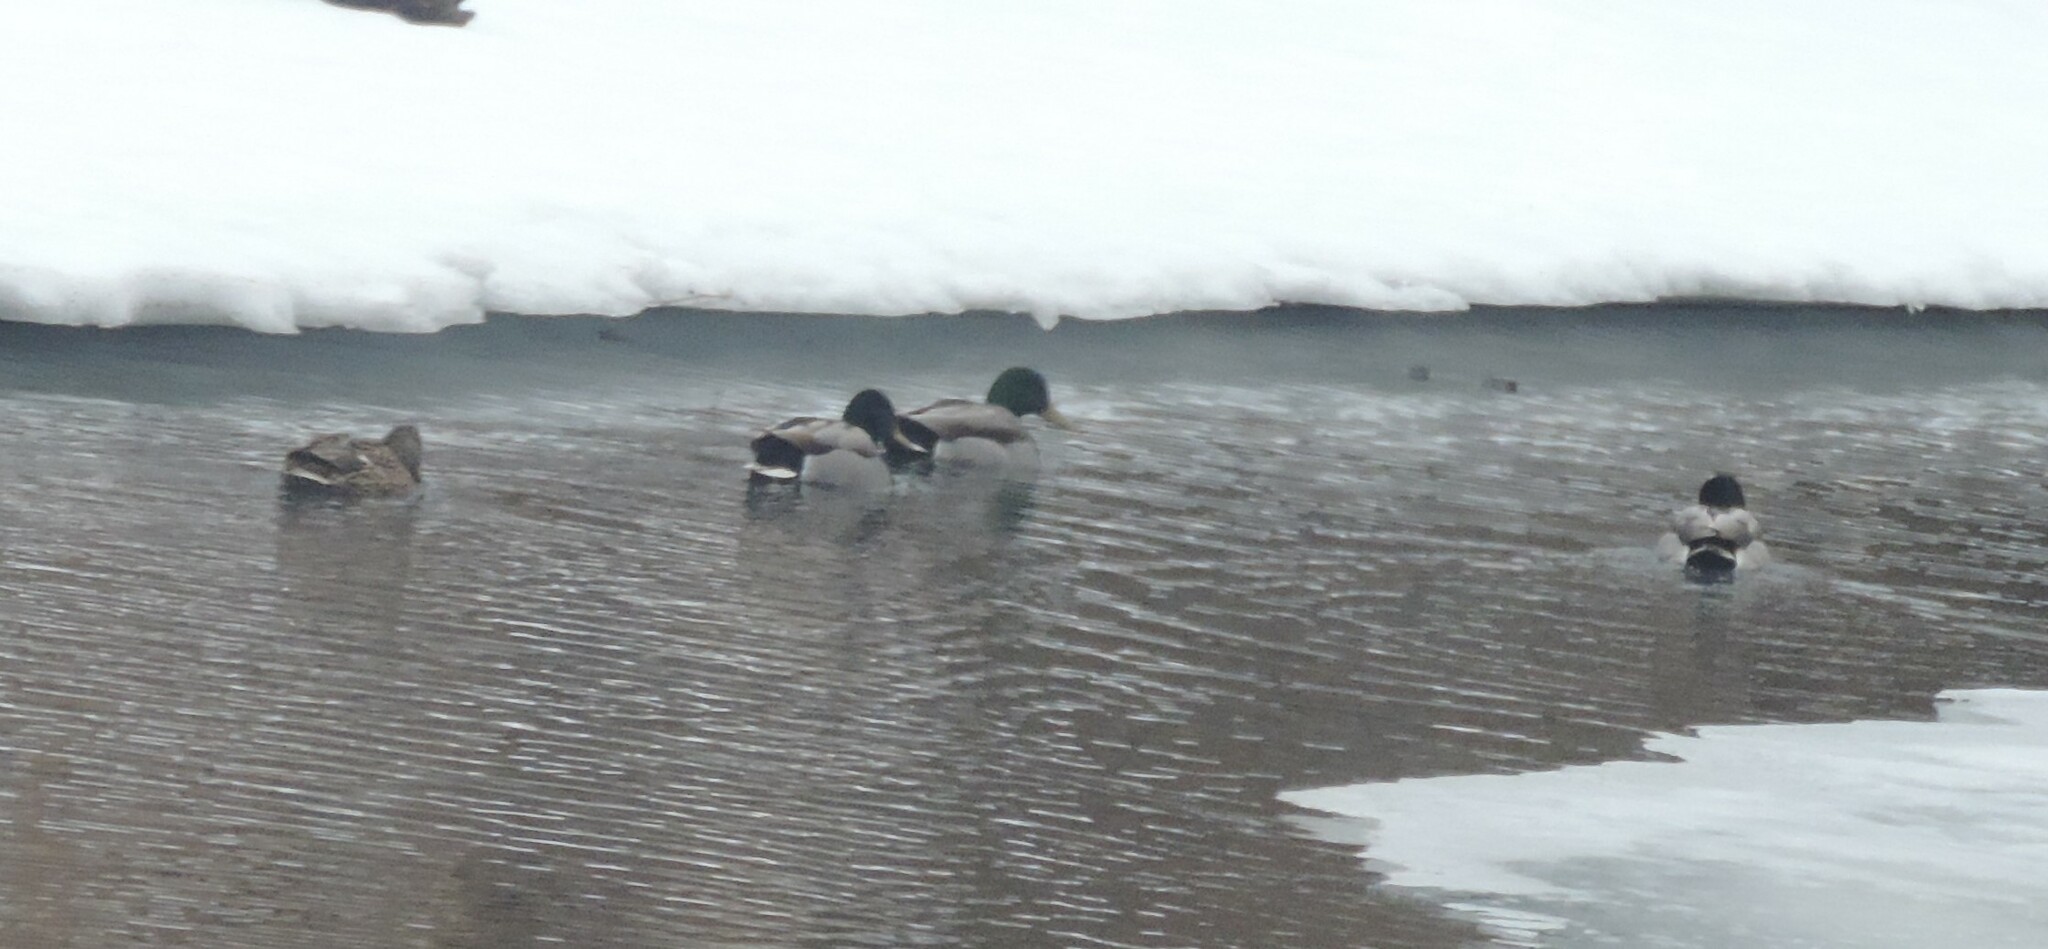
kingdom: Animalia
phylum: Chordata
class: Aves
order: Anseriformes
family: Anatidae
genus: Anas
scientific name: Anas platyrhynchos
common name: Mallard
